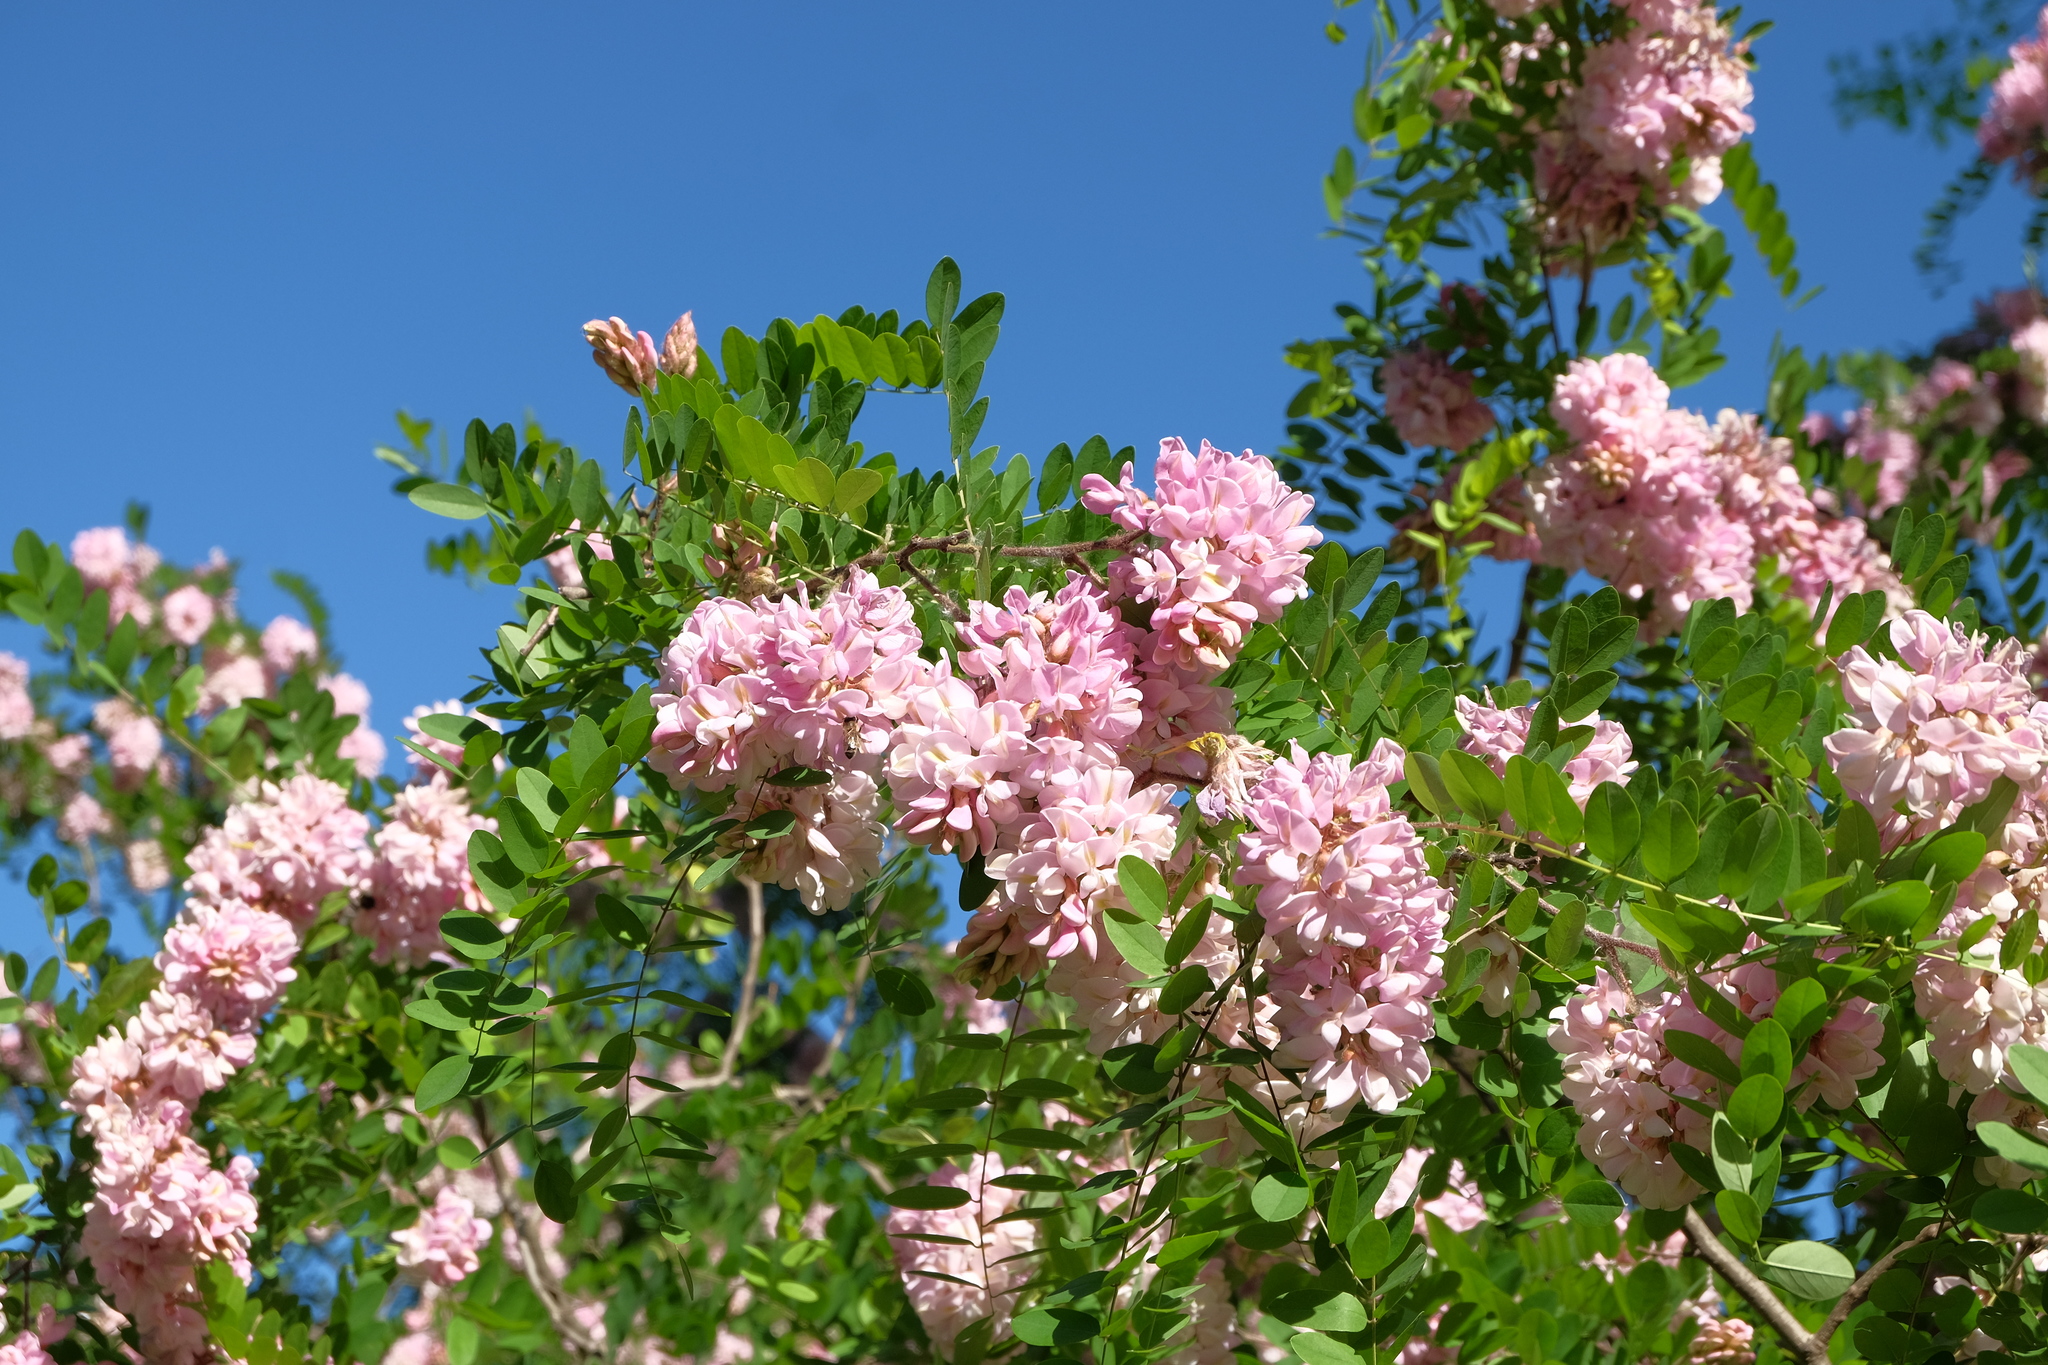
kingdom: Plantae
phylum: Tracheophyta
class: Magnoliopsida
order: Fabales
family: Fabaceae
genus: Robinia
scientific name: Robinia viscosa
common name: Clammy locust
